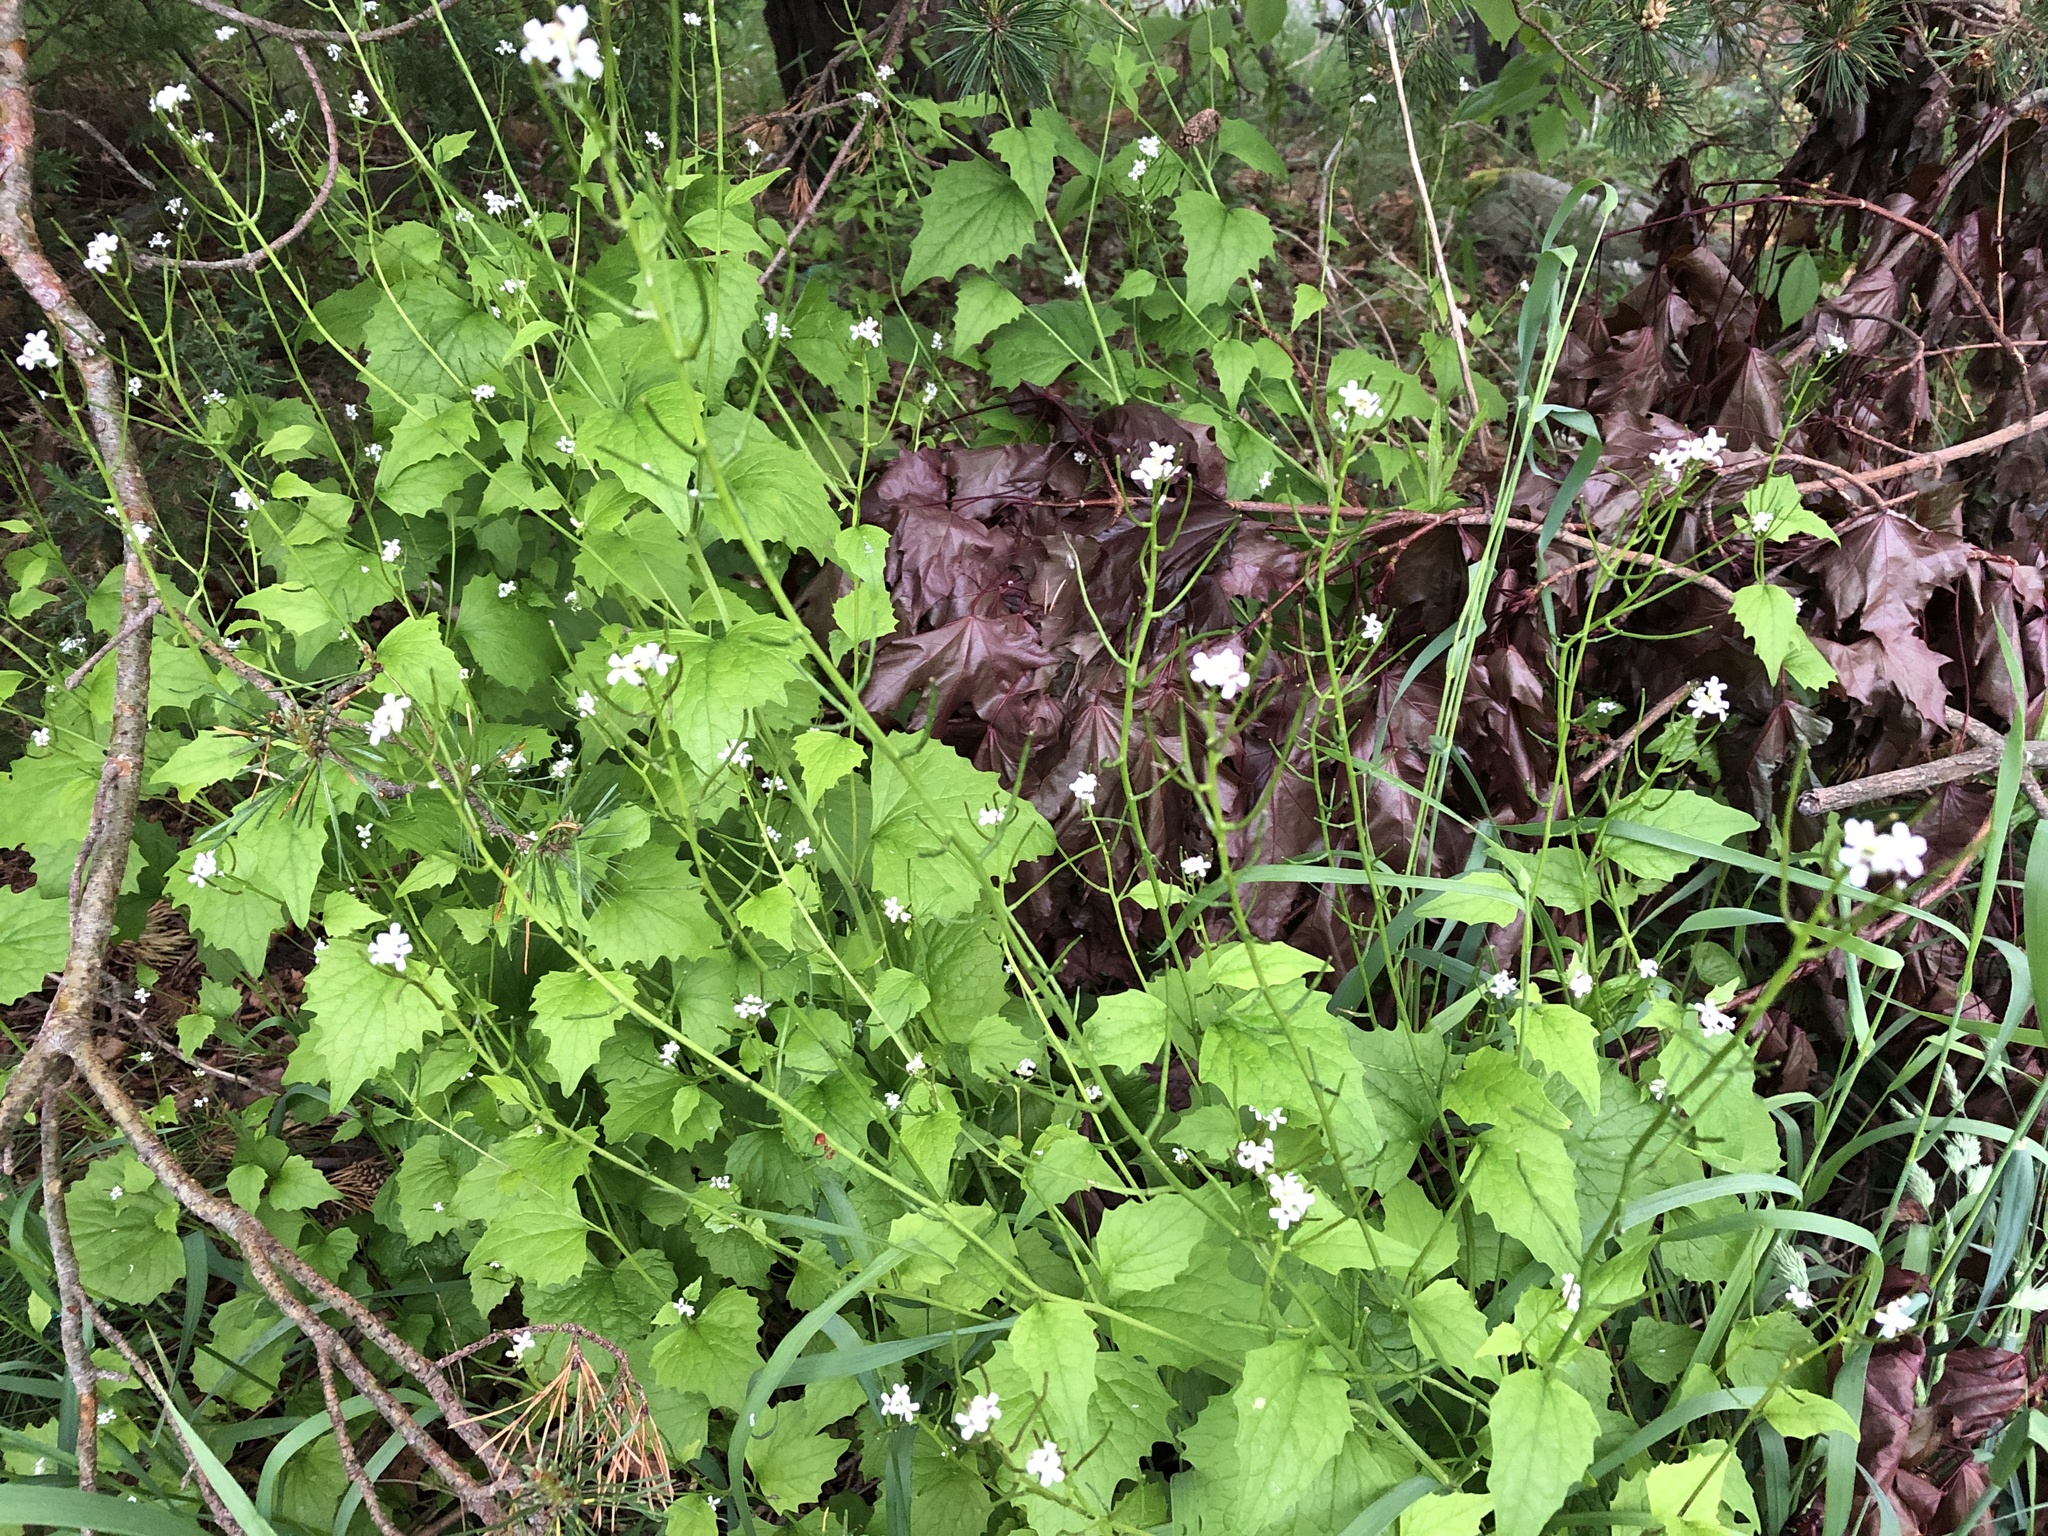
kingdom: Plantae
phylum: Tracheophyta
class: Magnoliopsida
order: Brassicales
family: Brassicaceae
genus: Alliaria
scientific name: Alliaria petiolata
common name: Garlic mustard
